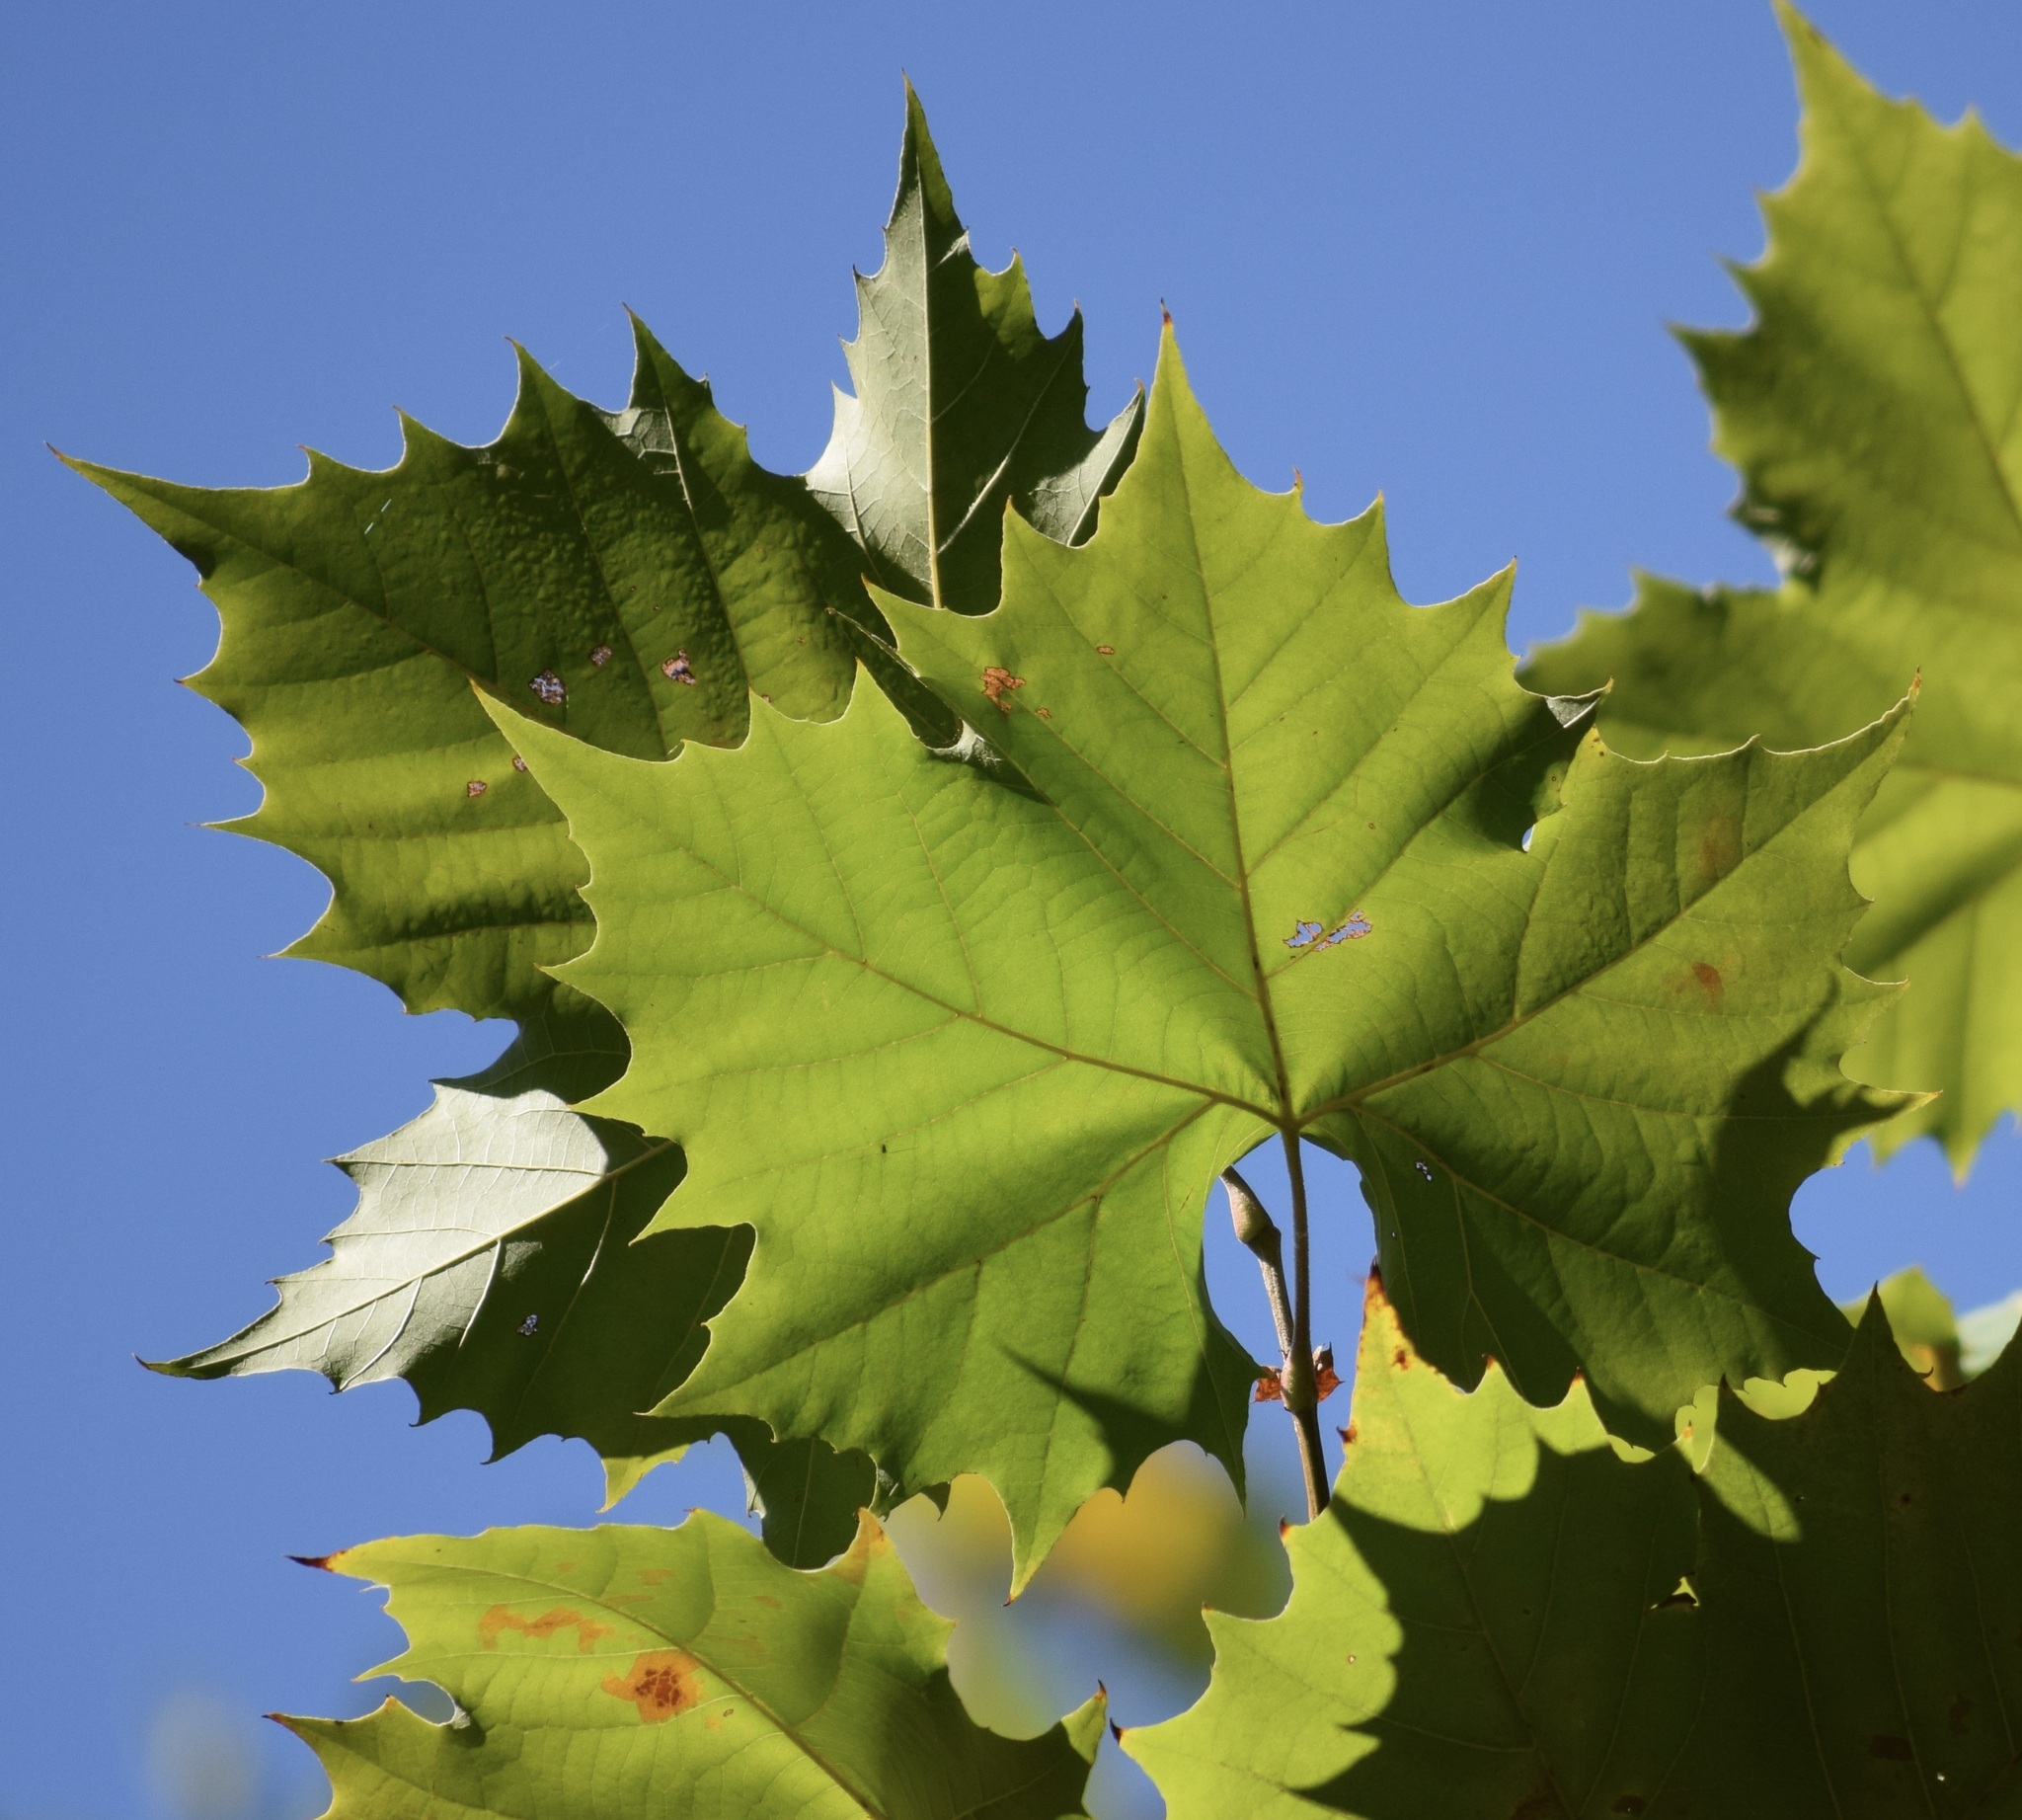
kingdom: Plantae
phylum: Tracheophyta
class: Magnoliopsida
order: Proteales
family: Platanaceae
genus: Platanus
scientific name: Platanus occidentalis
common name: American sycamore
